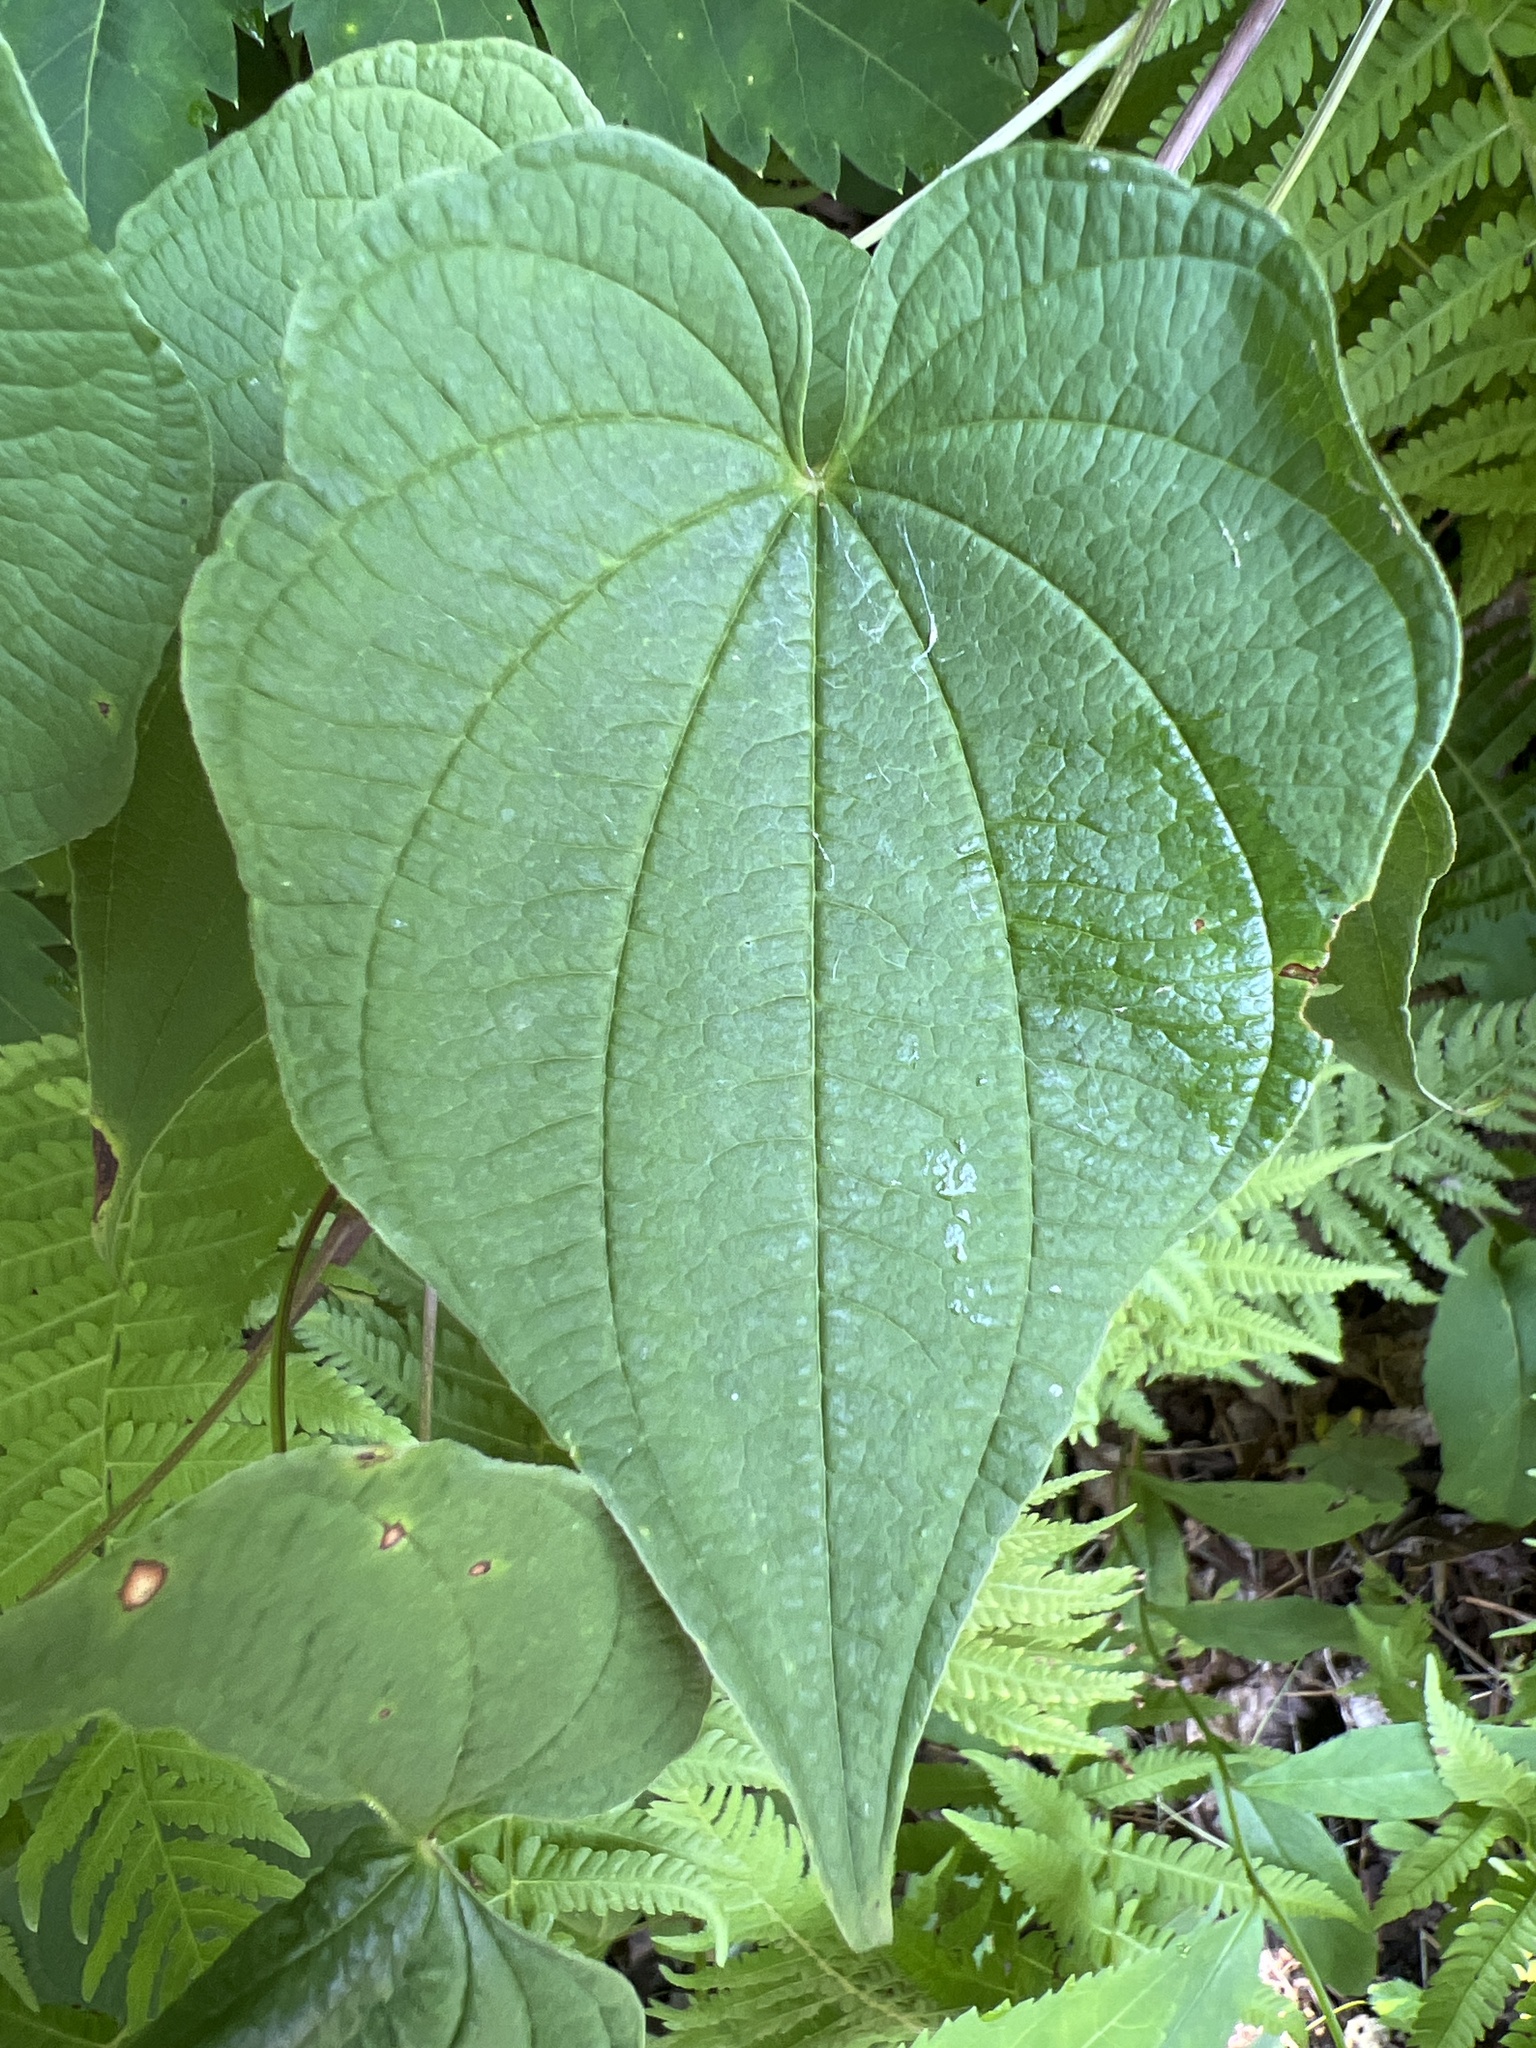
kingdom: Plantae
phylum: Tracheophyta
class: Liliopsida
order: Dioscoreales
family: Dioscoreaceae
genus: Dioscorea
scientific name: Dioscorea villosa
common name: Wild yam
